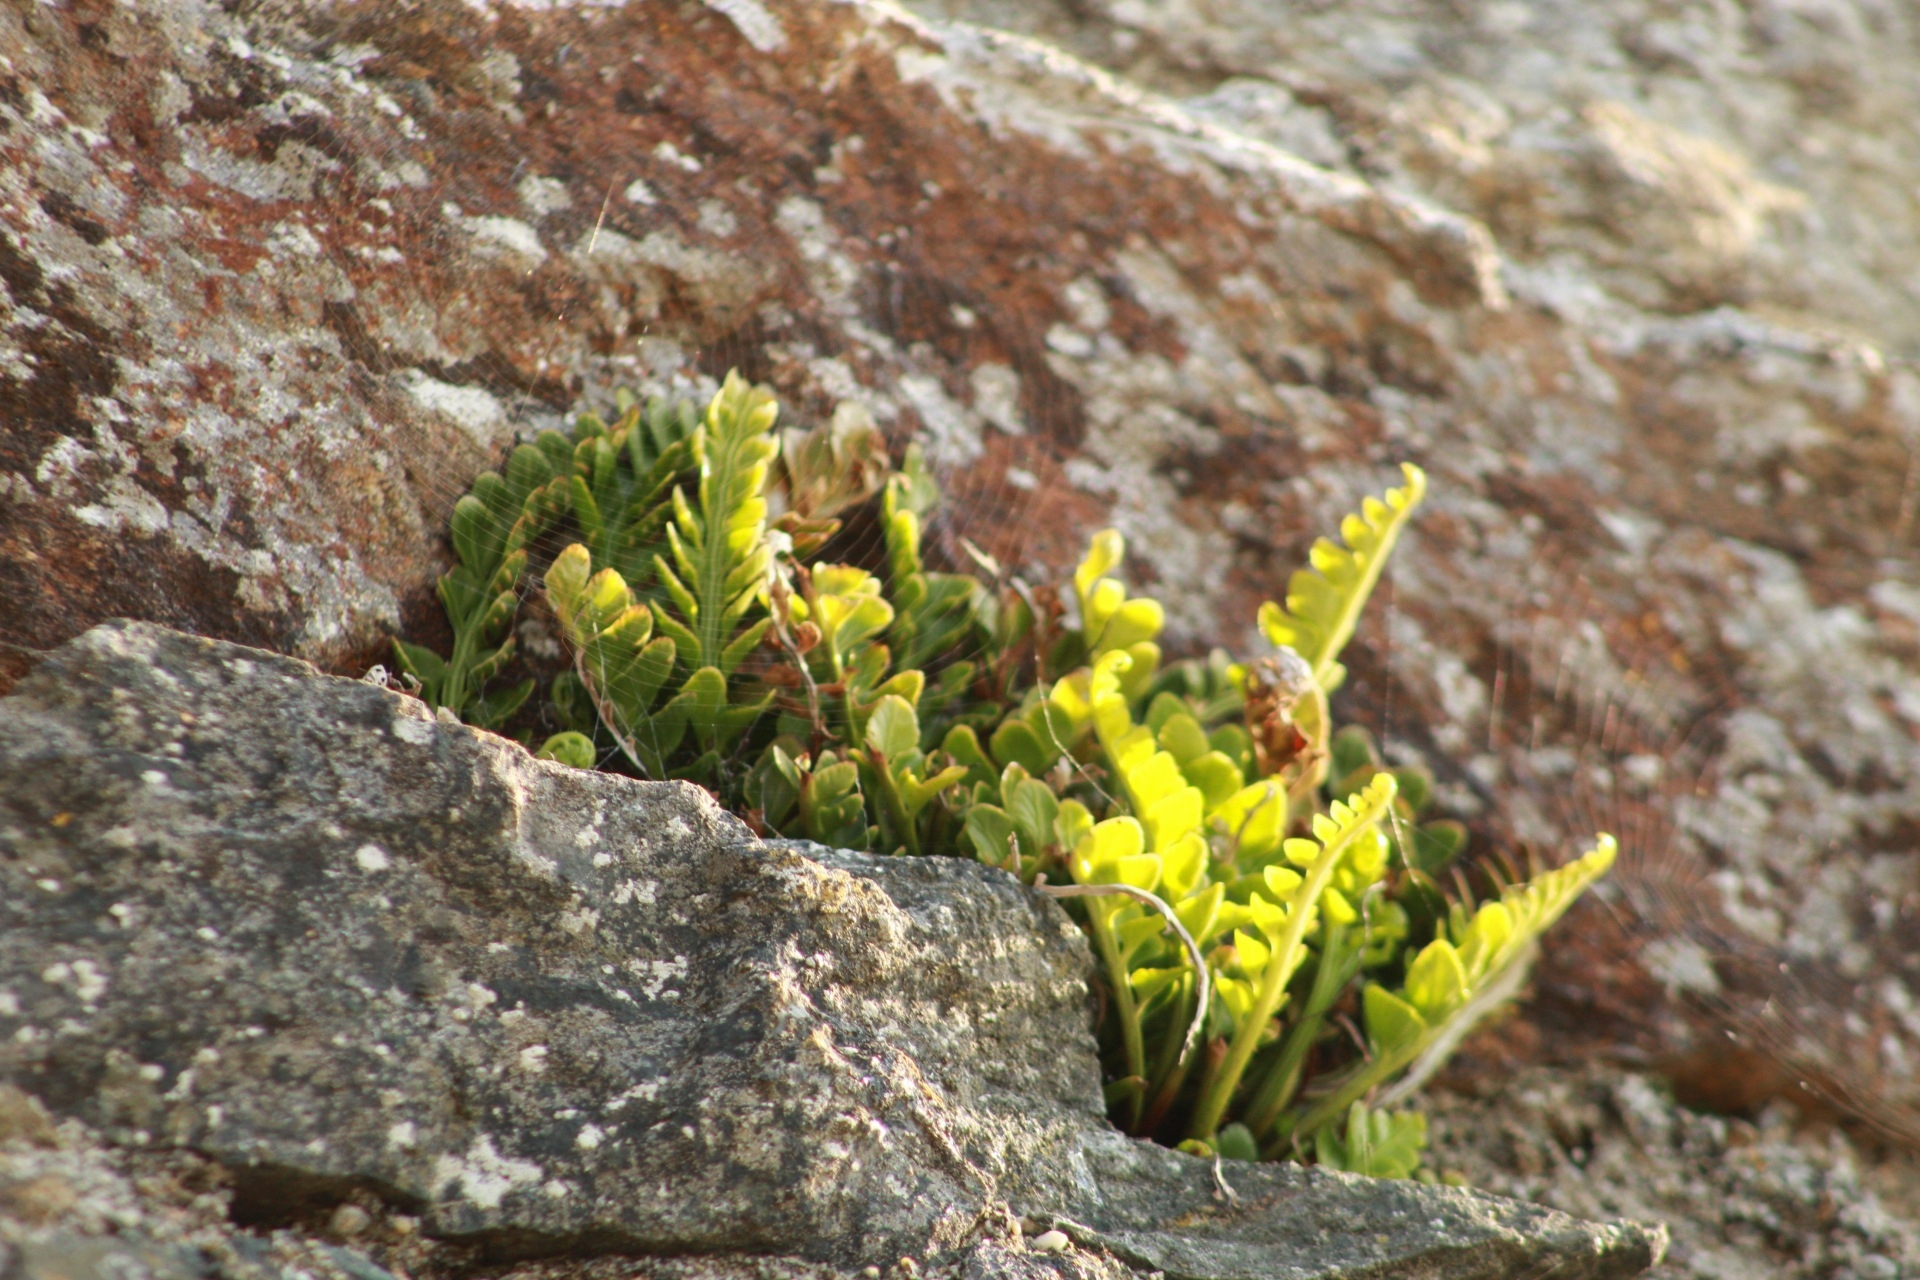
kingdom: Plantae
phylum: Tracheophyta
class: Polypodiopsida
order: Polypodiales
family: Aspleniaceae
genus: Asplenium
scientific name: Asplenium marinum
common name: Sea spleenwort
